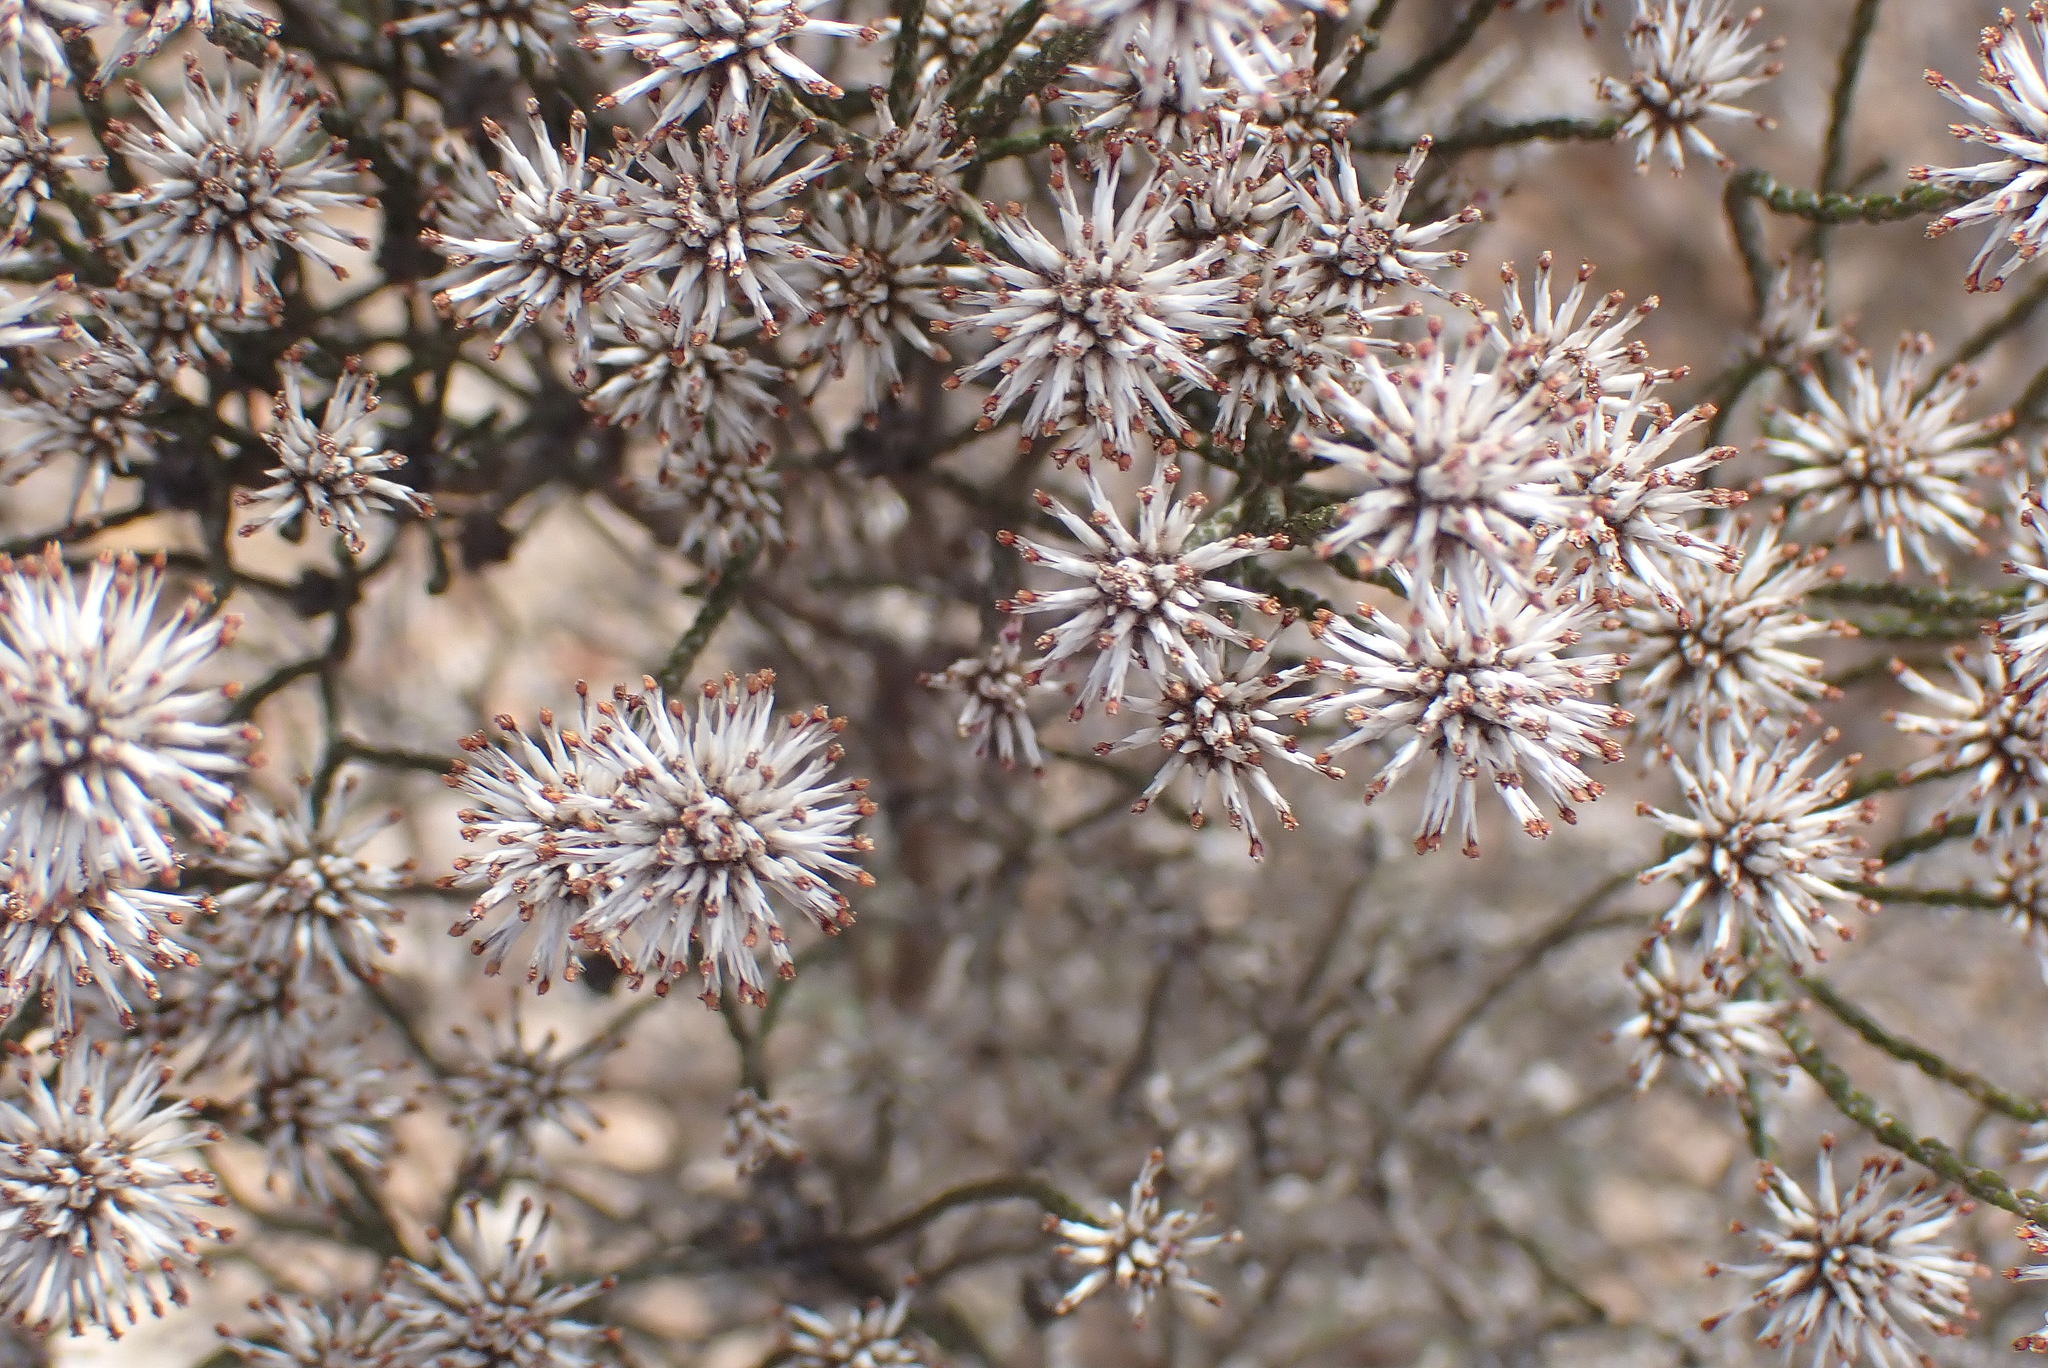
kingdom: Plantae
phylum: Tracheophyta
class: Magnoliopsida
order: Asterales
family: Asteraceae
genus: Stoebe
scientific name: Stoebe microphylla
